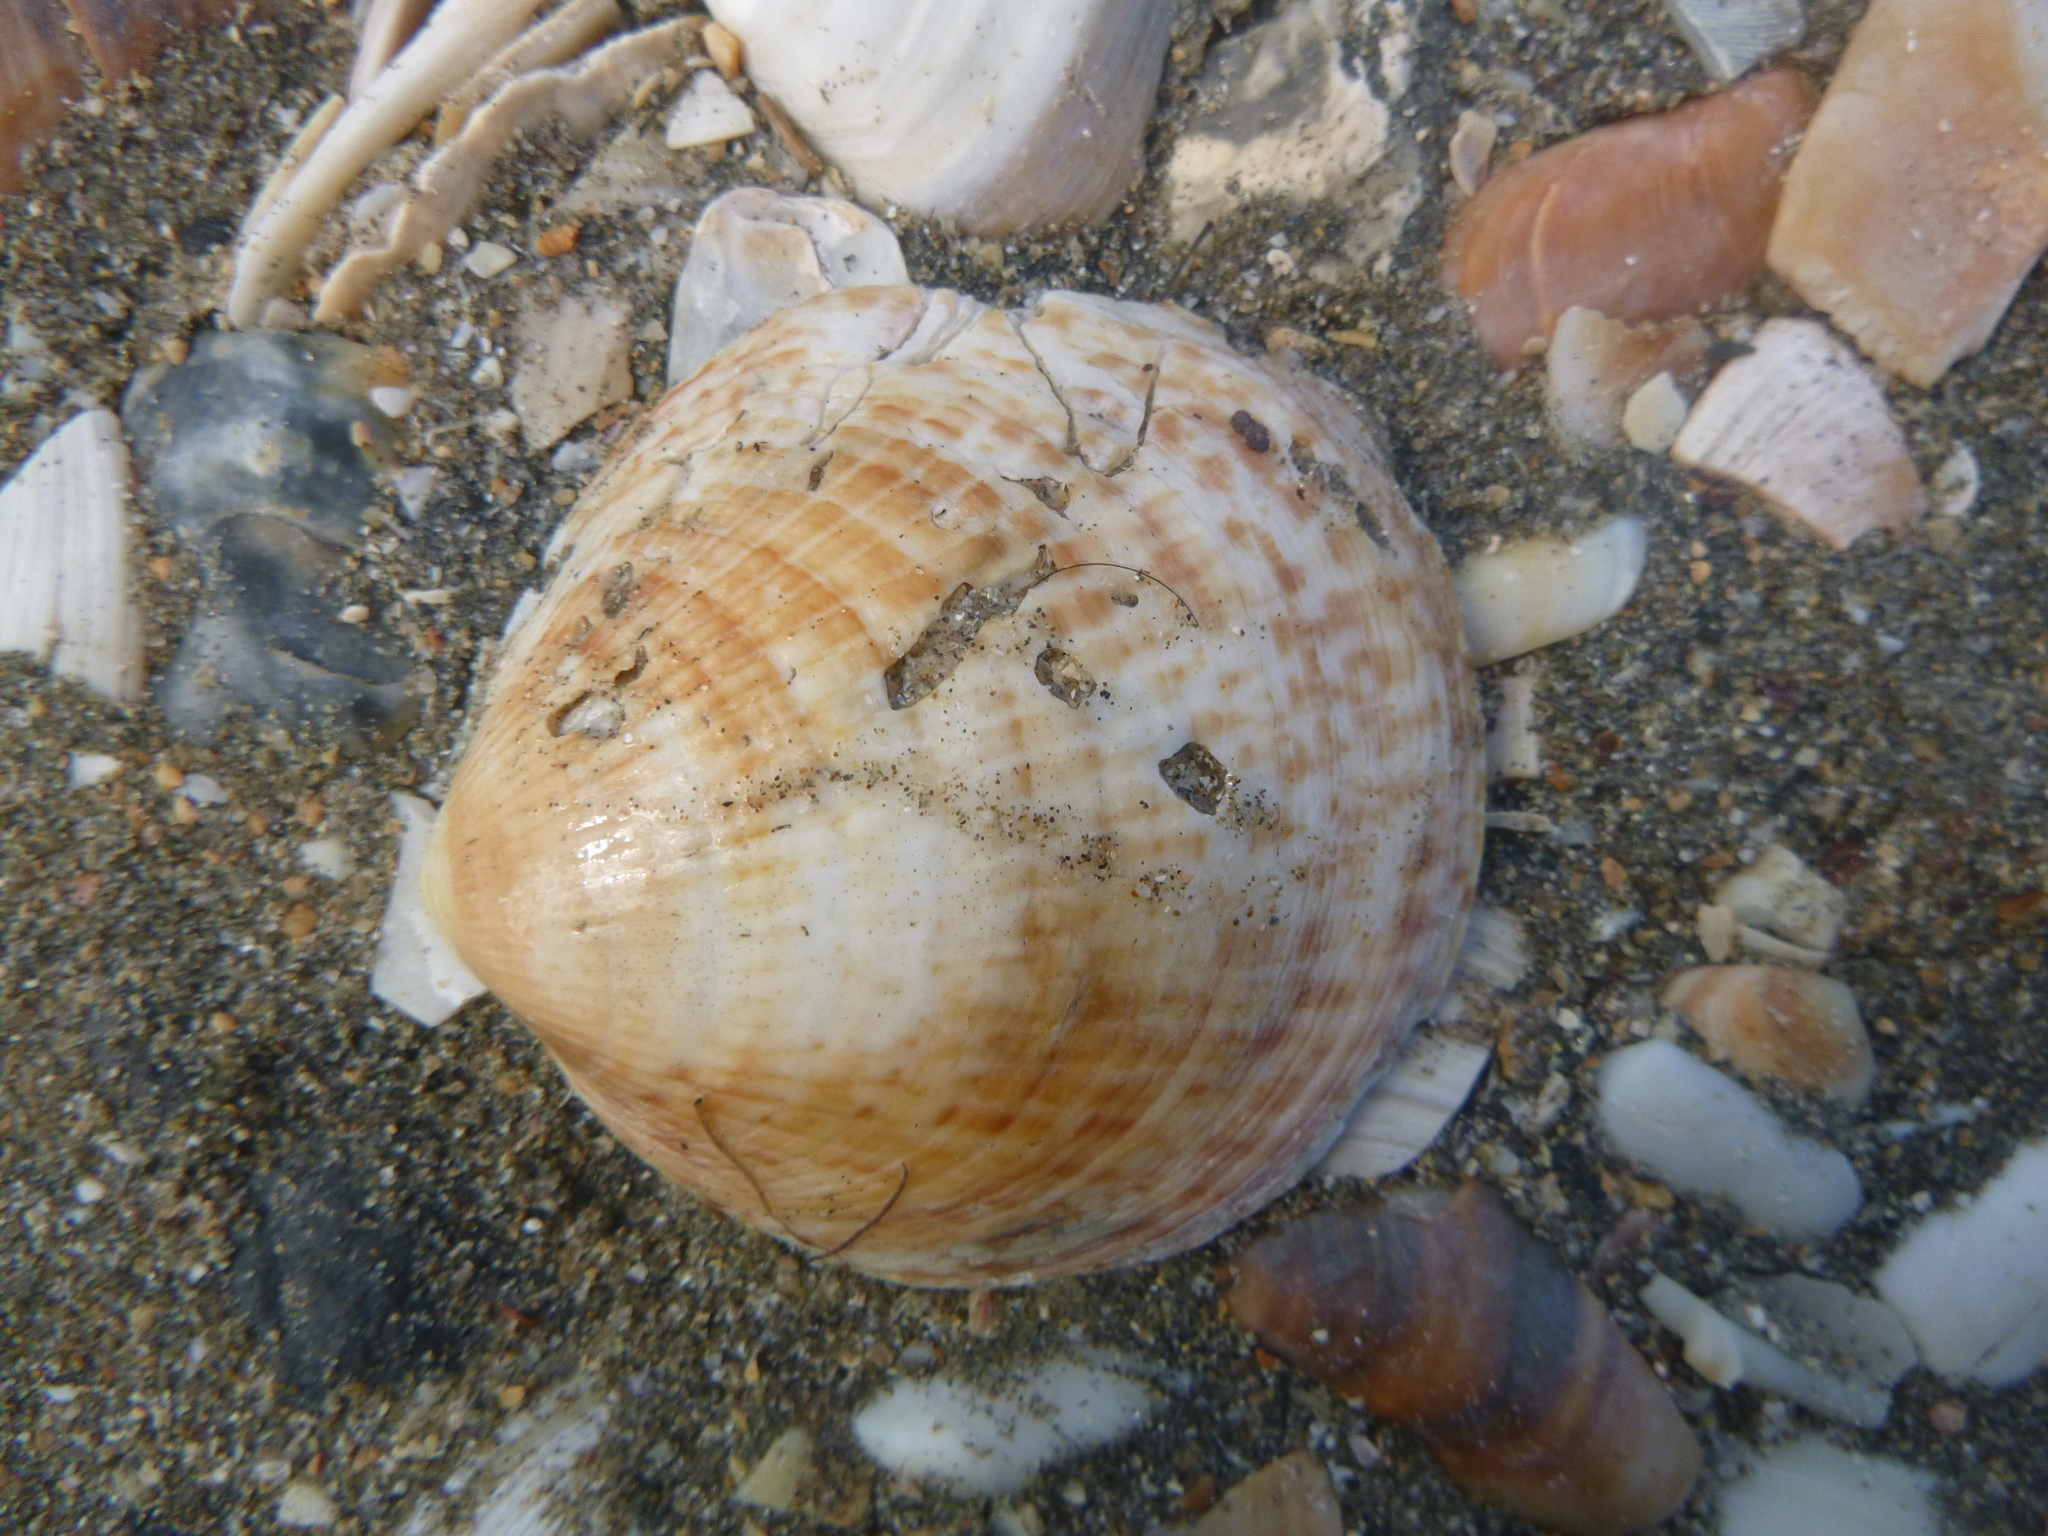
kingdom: Animalia
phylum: Mollusca
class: Bivalvia
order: Arcida
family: Glycymerididae
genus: Tucetona
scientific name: Tucetona laticostata
